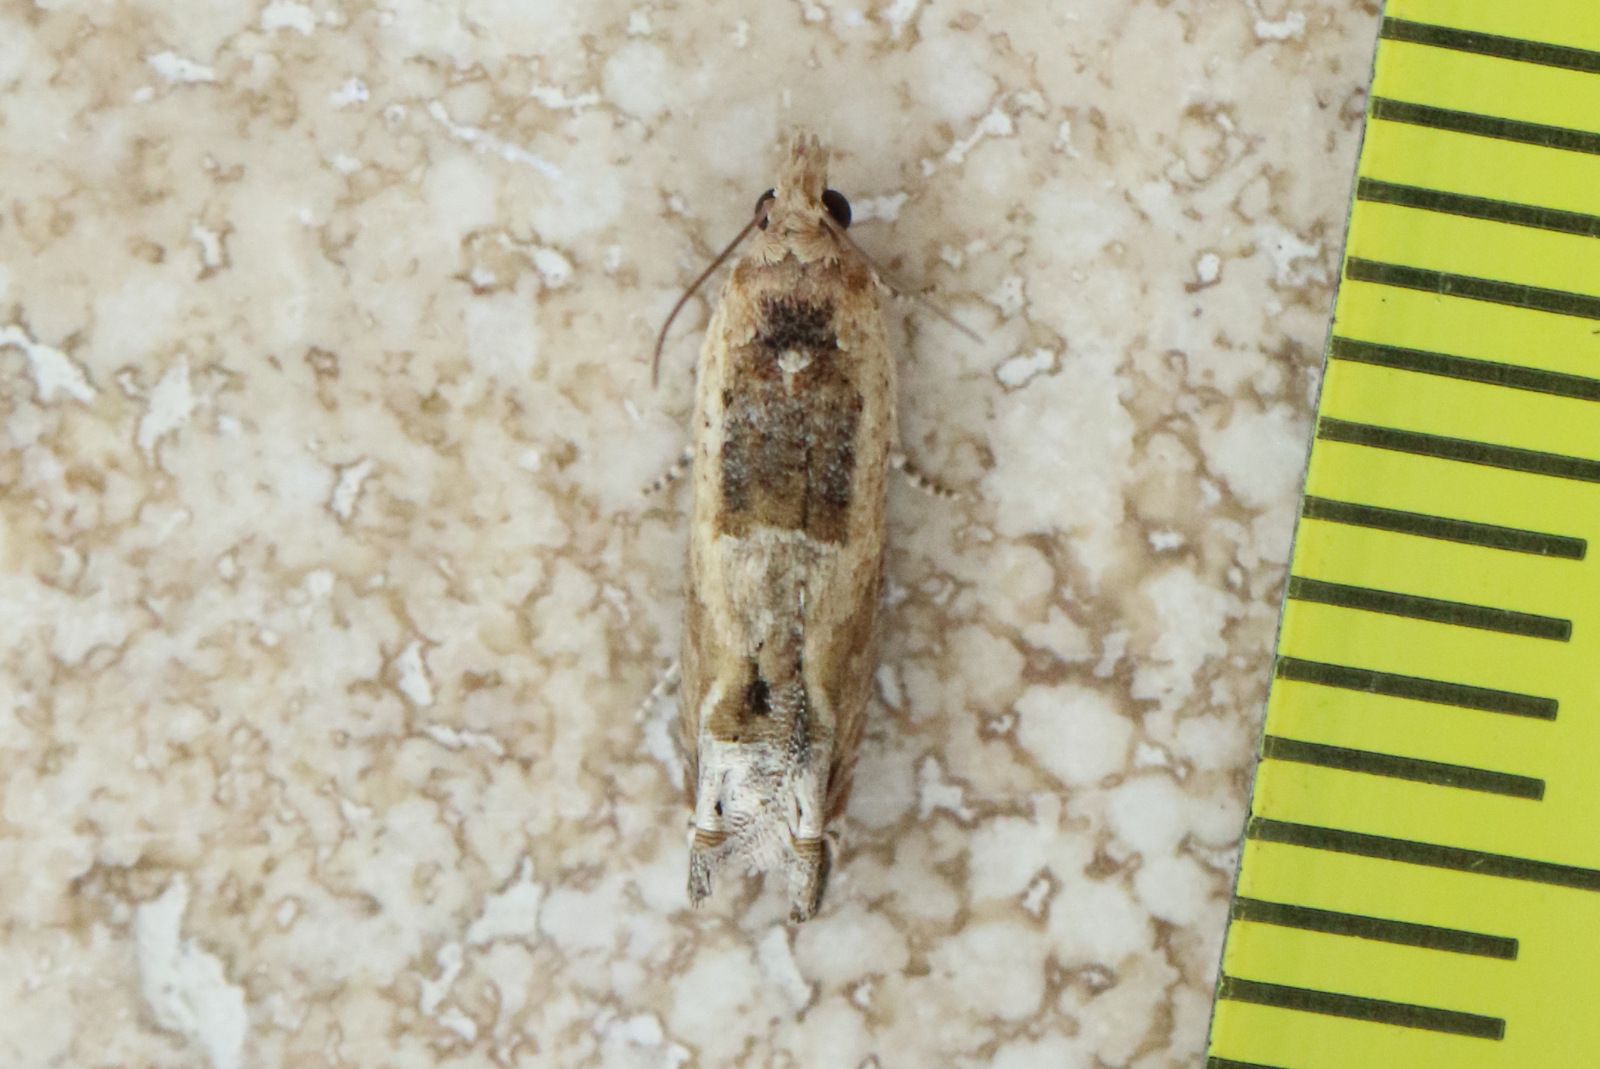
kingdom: Animalia
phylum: Arthropoda
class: Insecta
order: Lepidoptera
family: Tortricidae
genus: Crocidosema
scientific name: Crocidosema plebejana
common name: Southern bell
